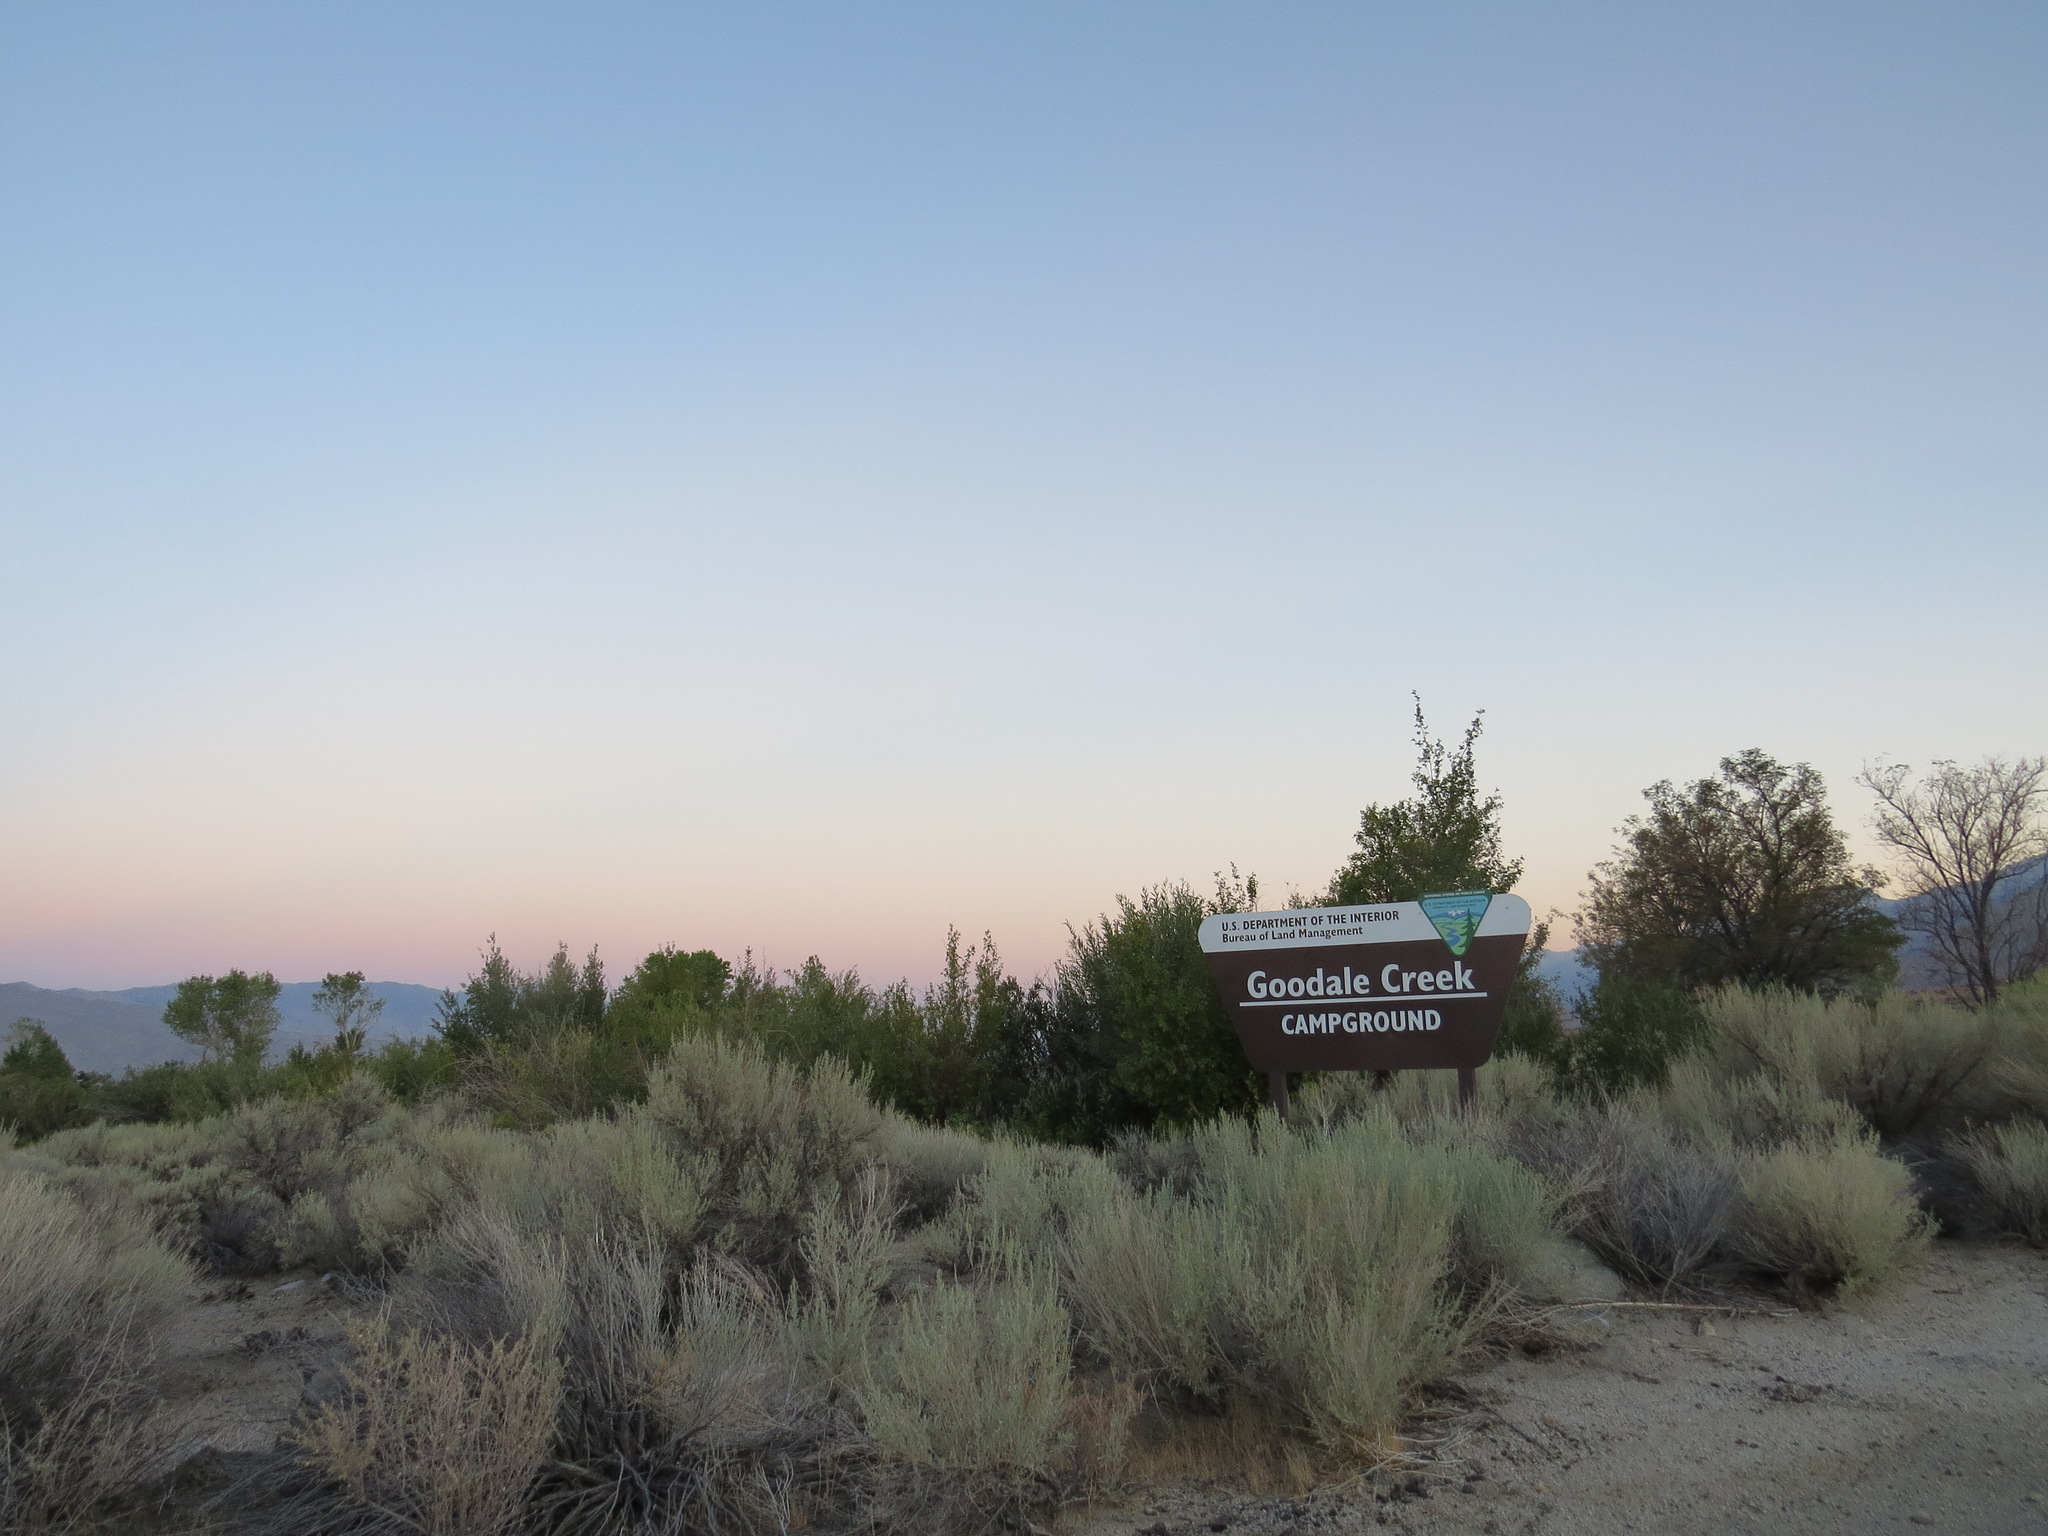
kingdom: Plantae
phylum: Tracheophyta
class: Magnoliopsida
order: Asterales
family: Asteraceae
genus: Artemisia
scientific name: Artemisia tridentata
